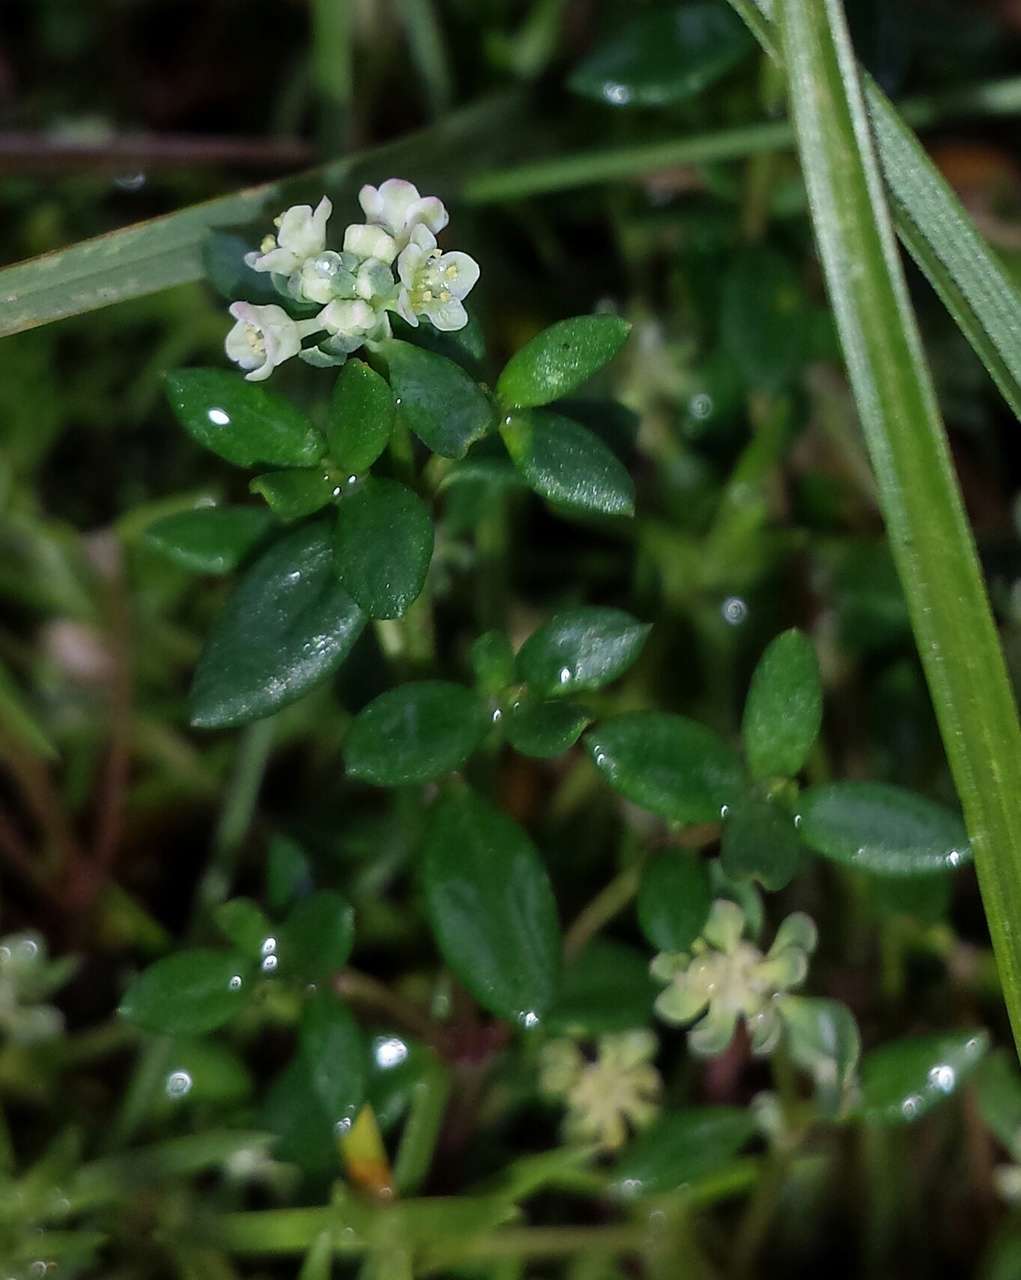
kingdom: Plantae
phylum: Tracheophyta
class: Magnoliopsida
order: Malpighiales
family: Phyllanthaceae
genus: Poranthera
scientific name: Poranthera oreophila
